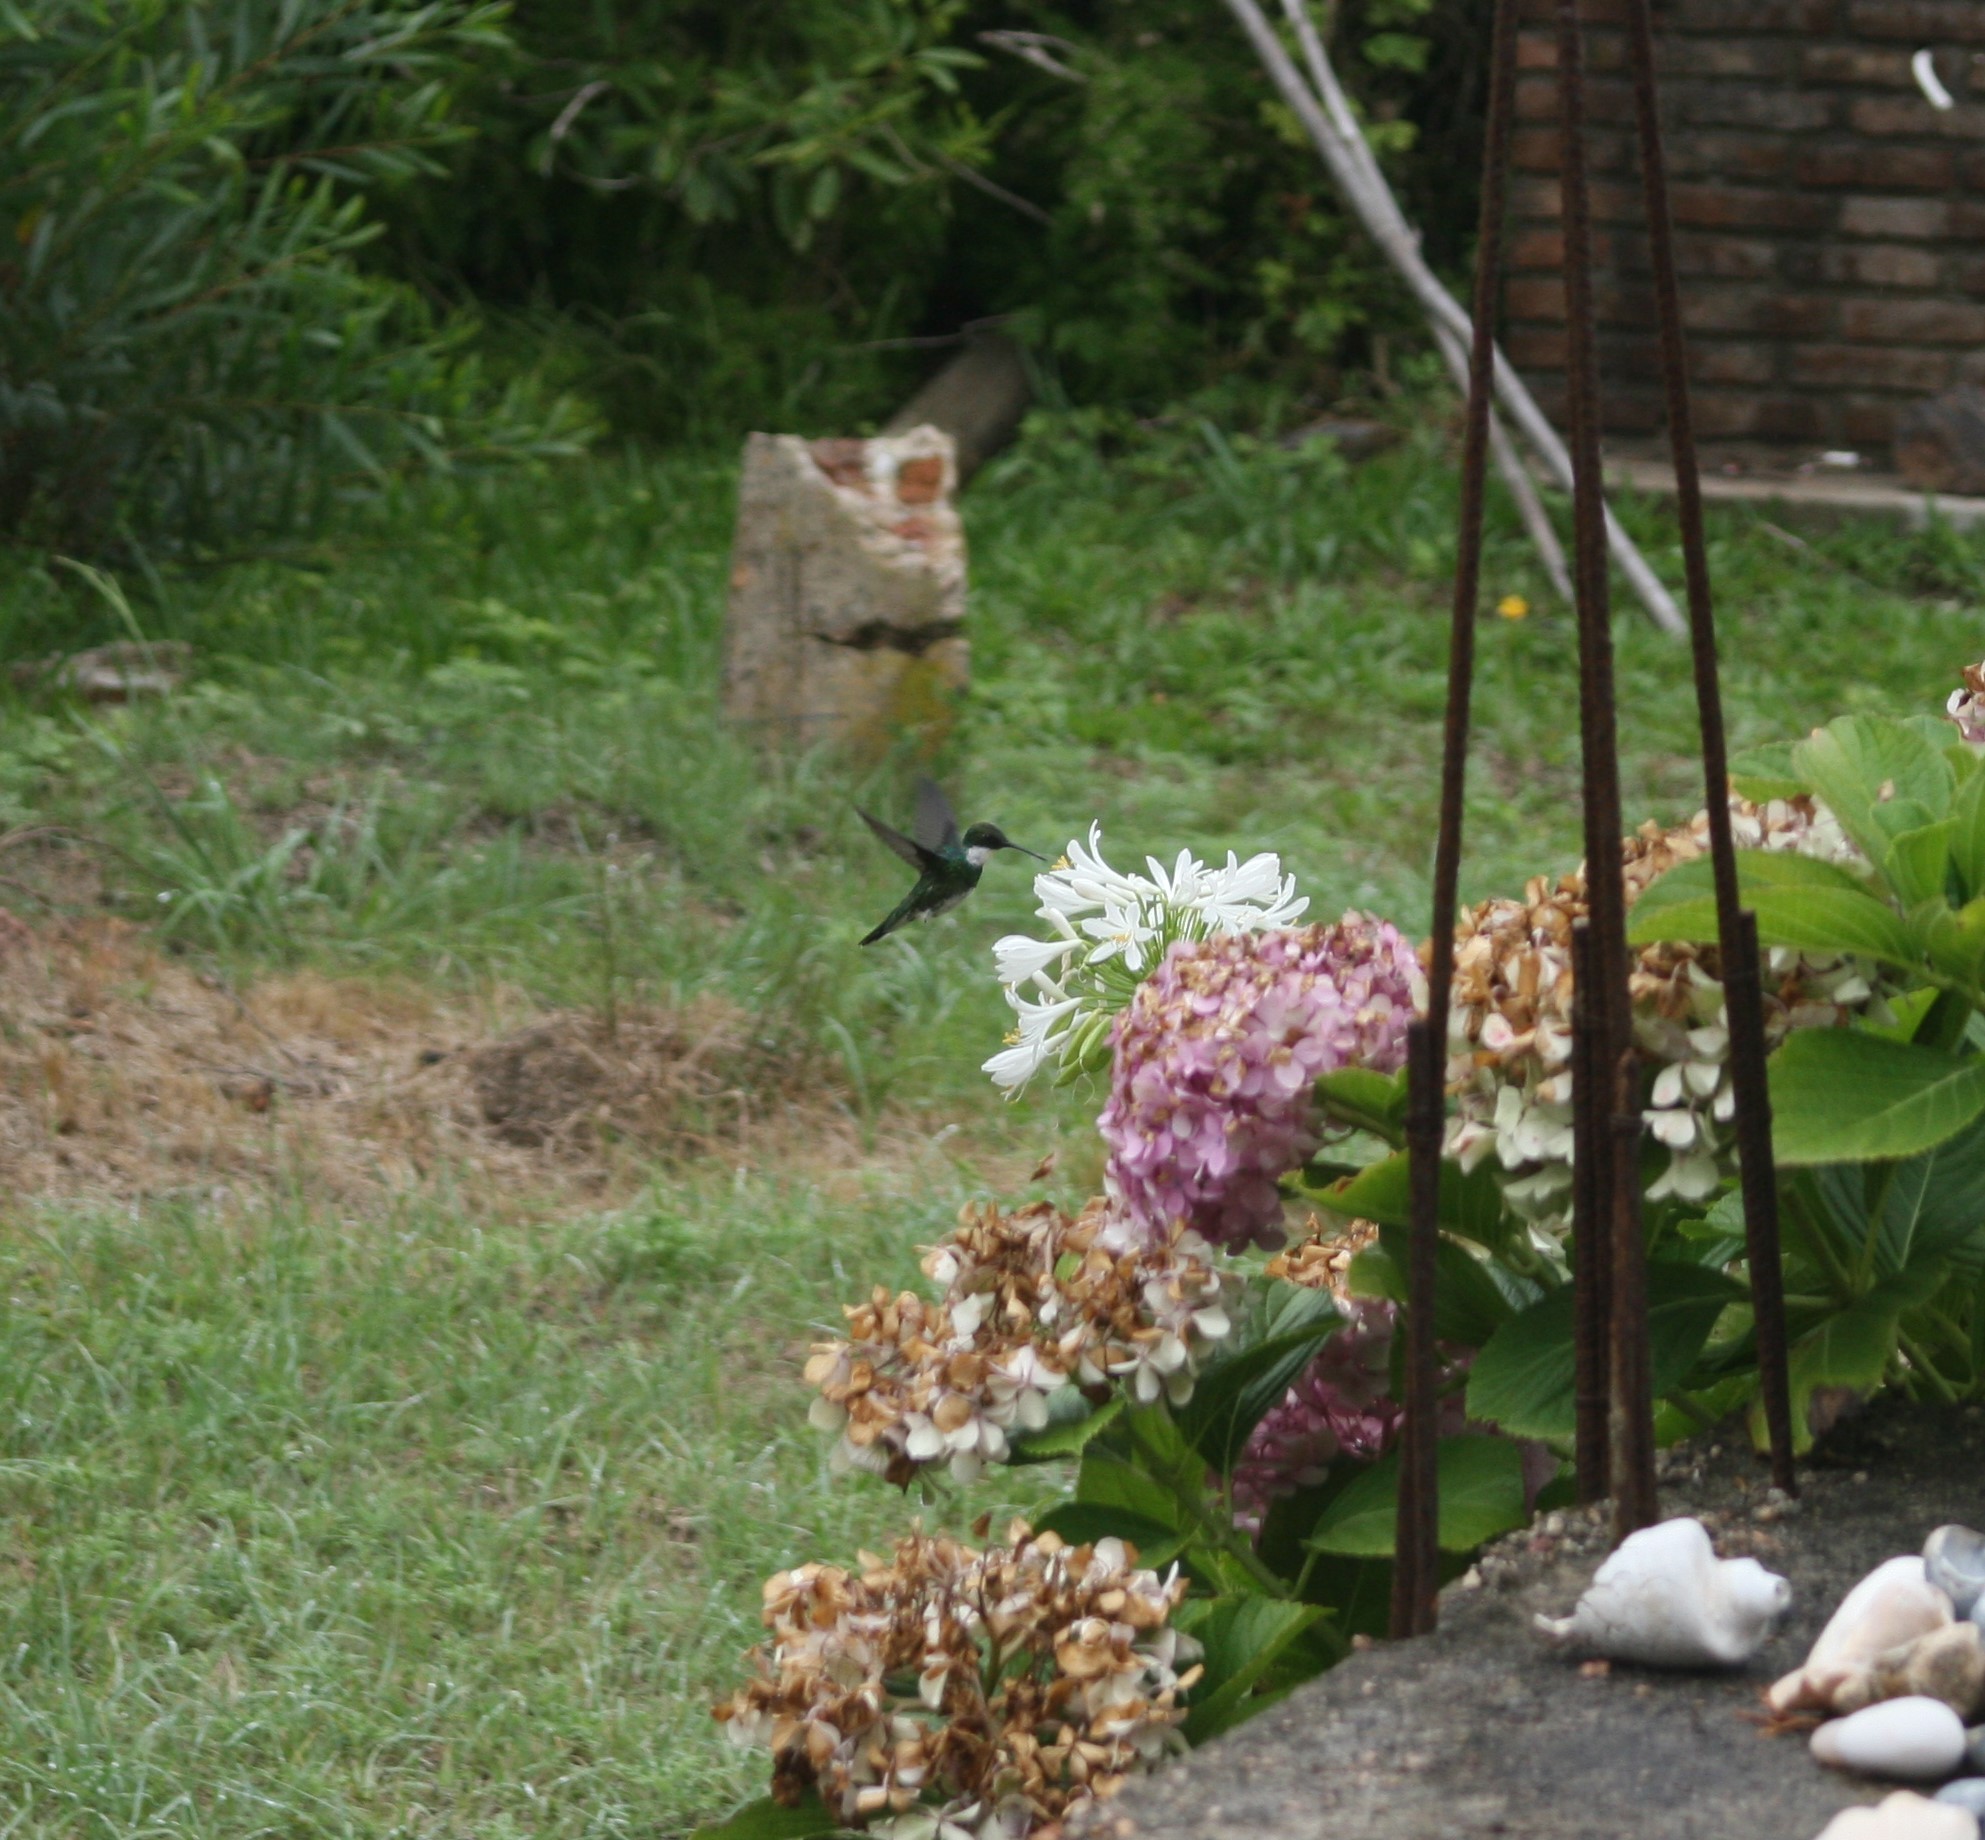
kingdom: Animalia
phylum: Chordata
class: Aves
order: Apodiformes
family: Trochilidae
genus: Leucochloris
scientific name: Leucochloris albicollis
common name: White-throated hummingbird
